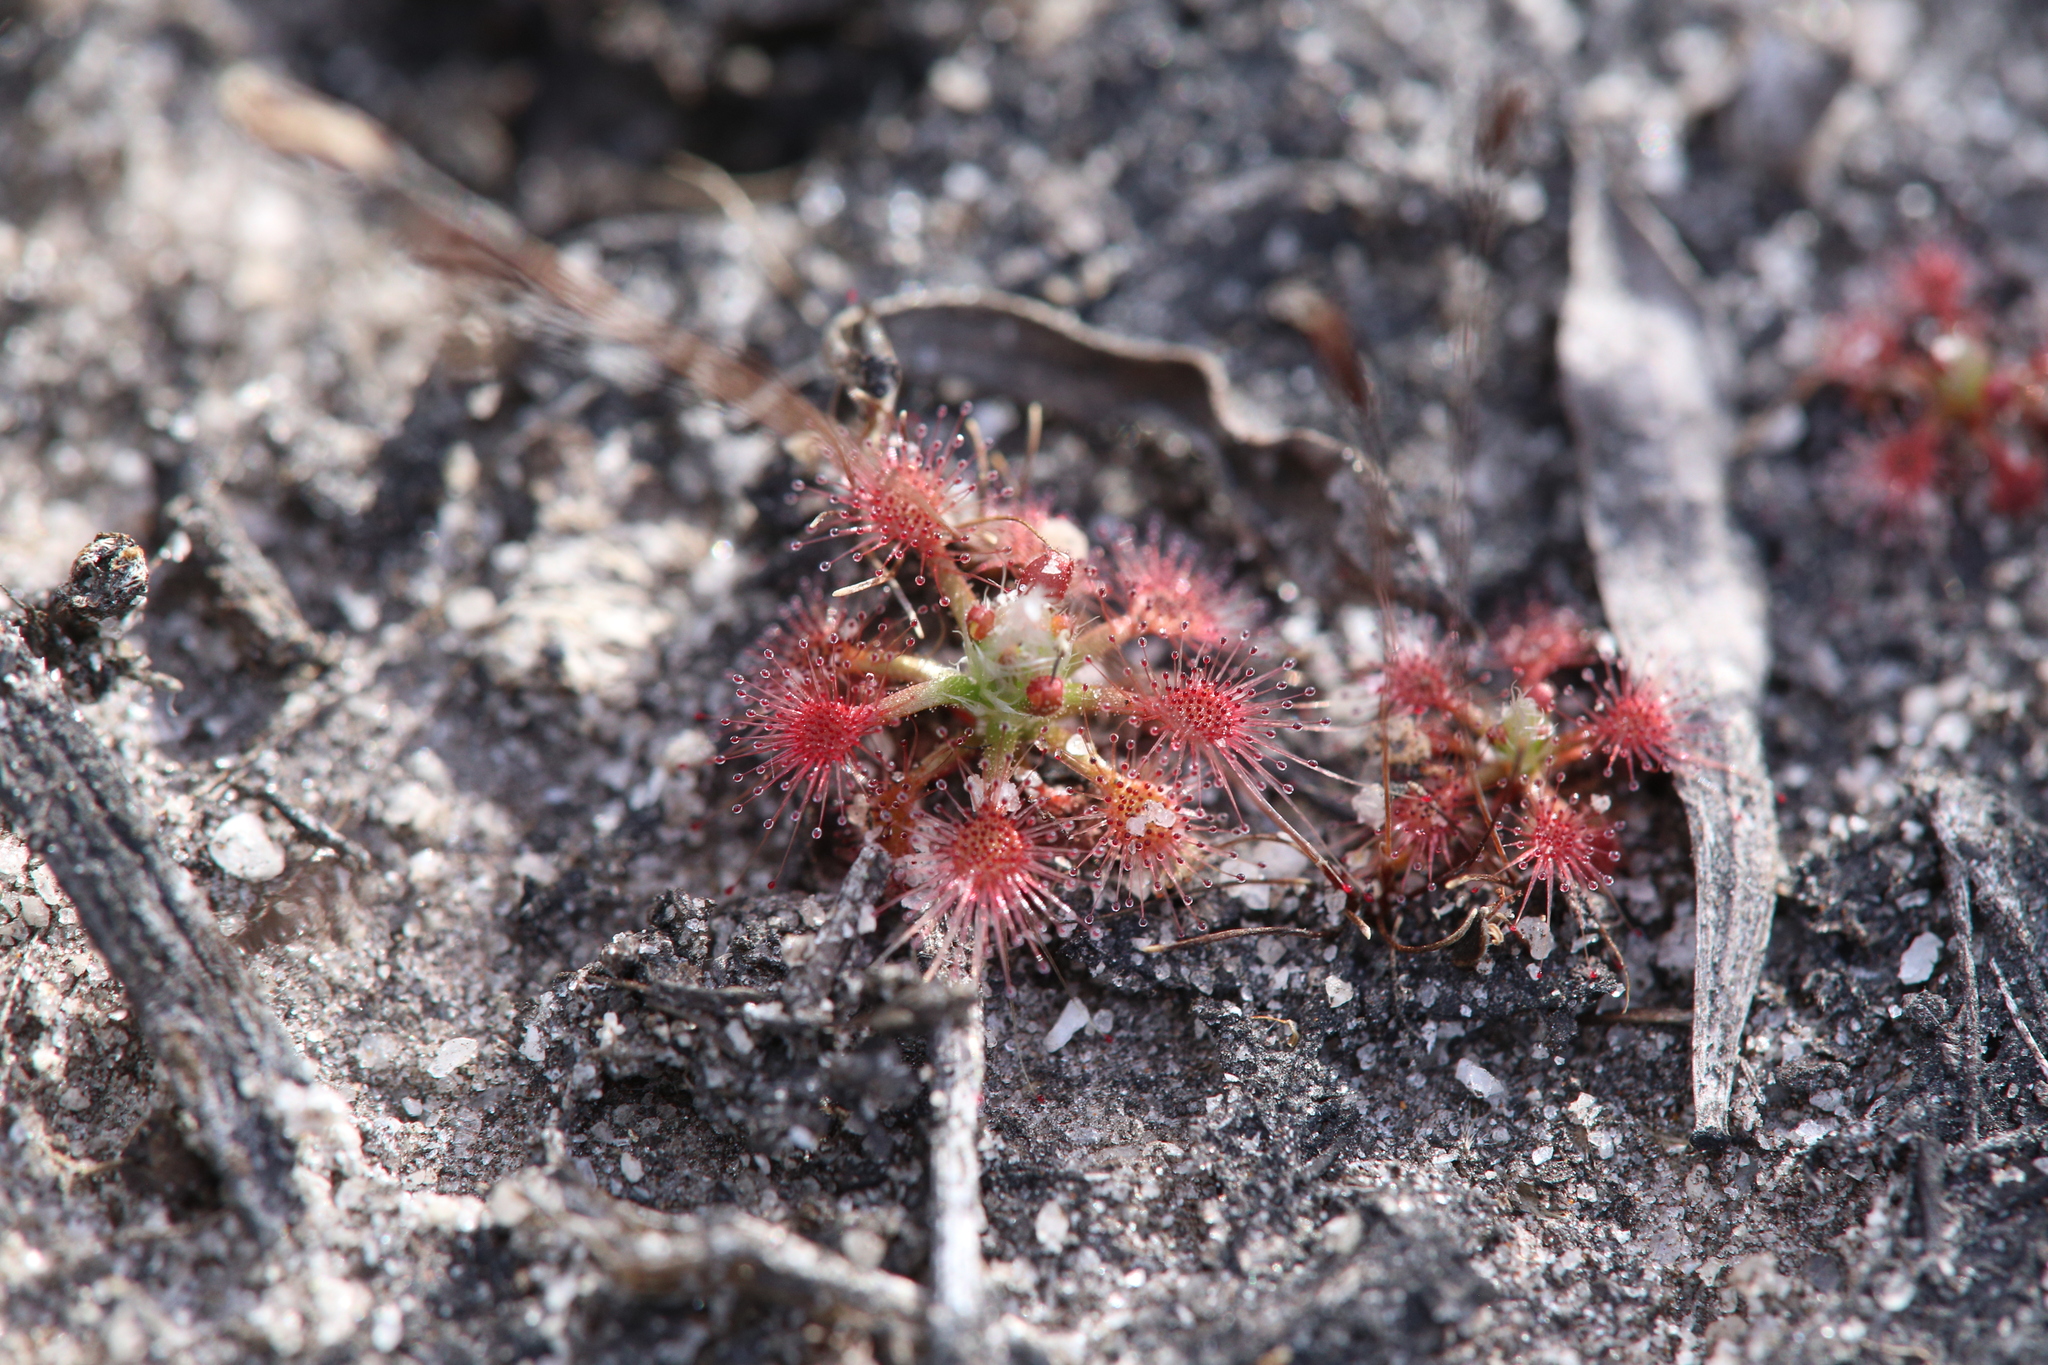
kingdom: Plantae
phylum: Tracheophyta
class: Magnoliopsida
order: Caryophyllales
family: Droseraceae
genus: Drosera
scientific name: Drosera nitidula
